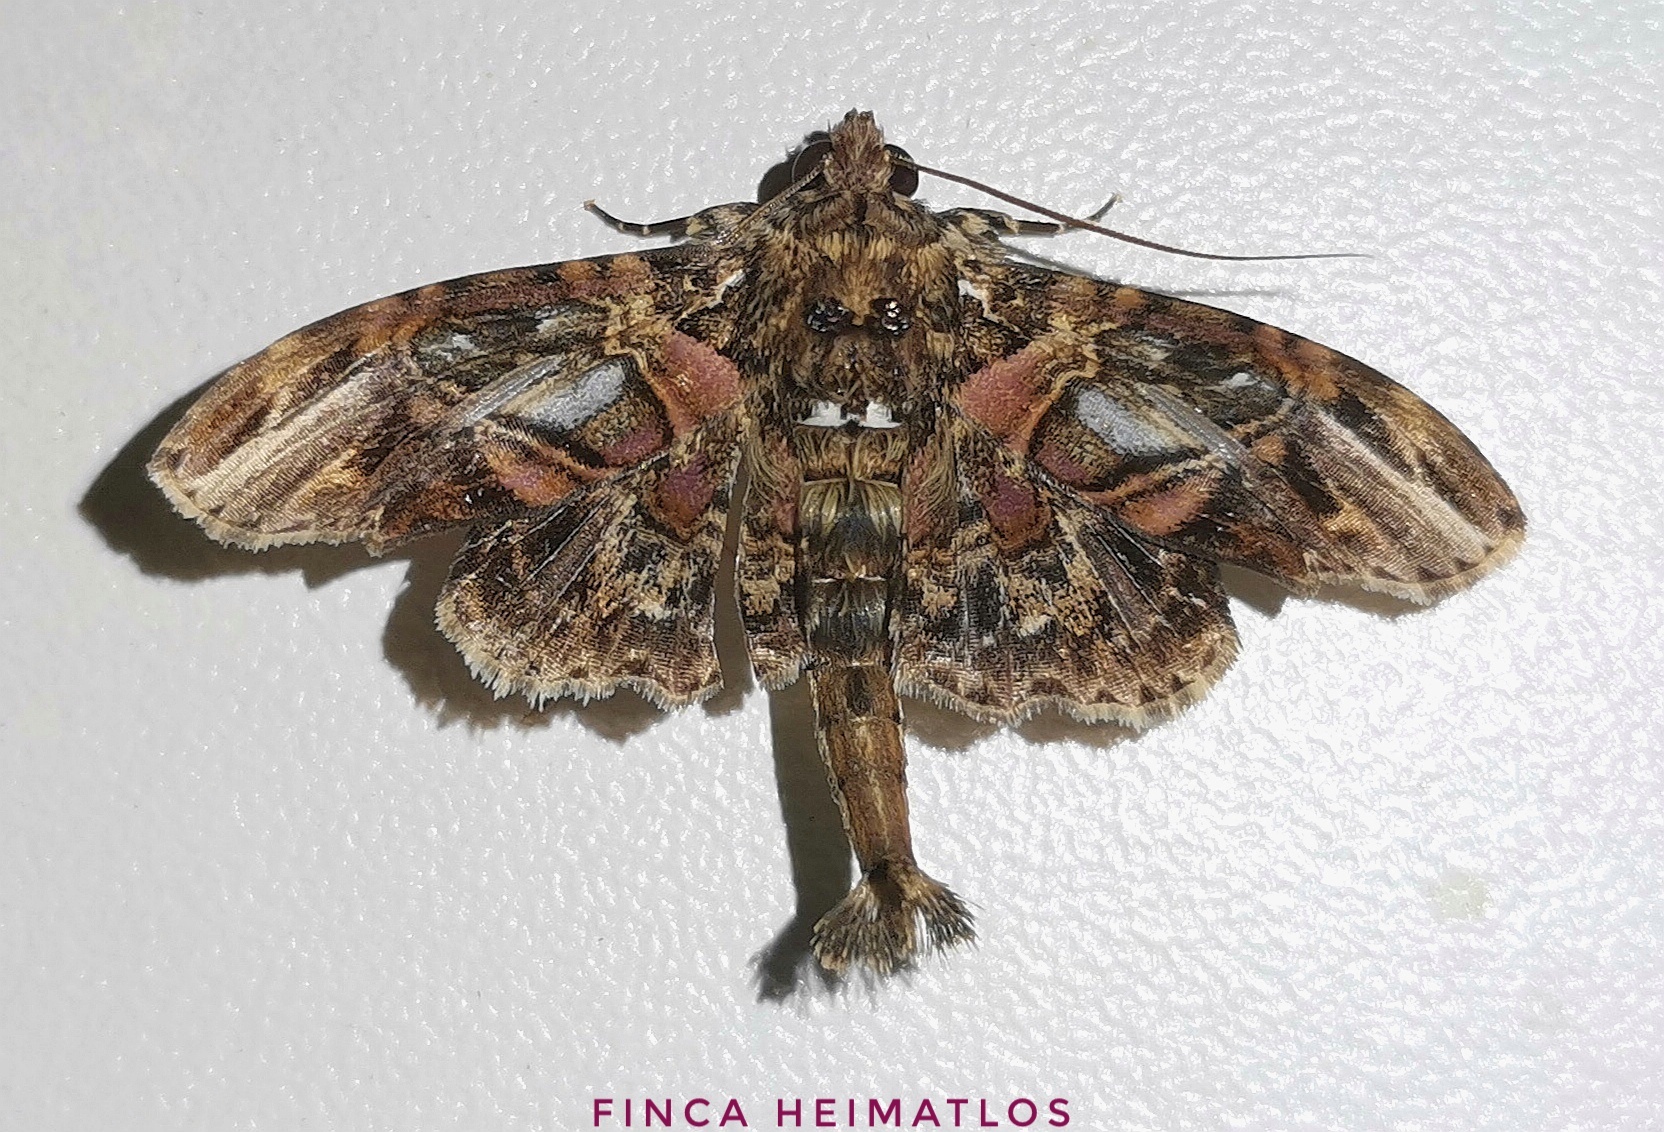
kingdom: Animalia
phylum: Arthropoda
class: Insecta
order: Lepidoptera
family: Erebidae
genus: Dolichosomastis
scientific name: Dolichosomastis hermieri
